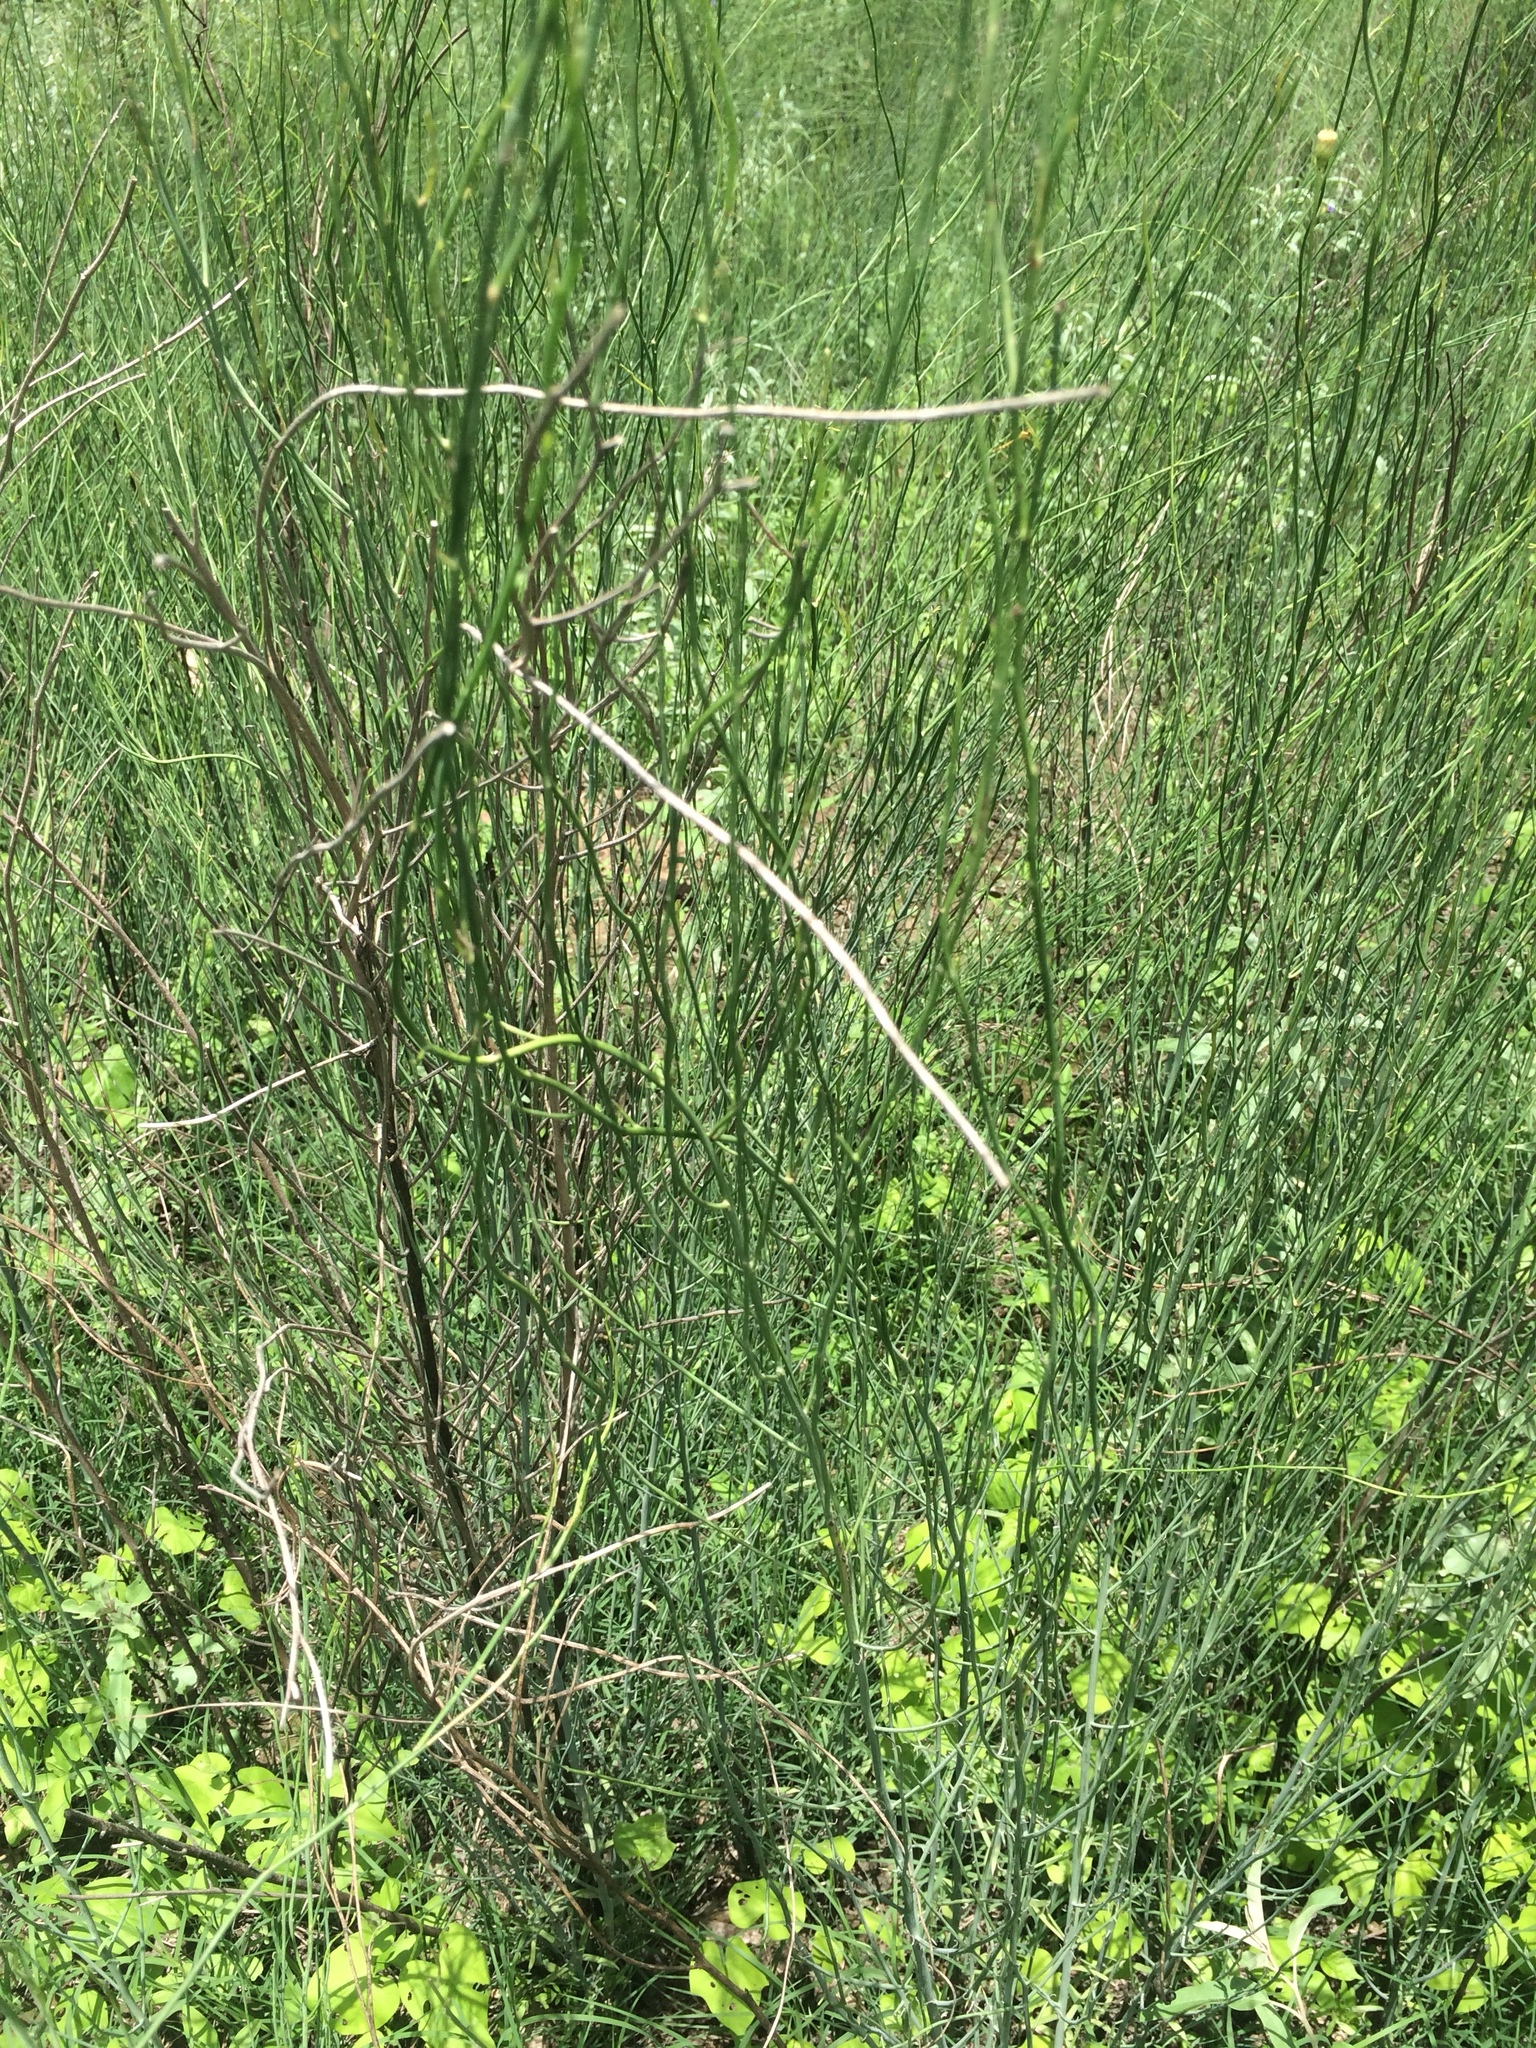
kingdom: Plantae
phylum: Tracheophyta
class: Magnoliopsida
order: Fabales
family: Fabaceae
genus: Spartium
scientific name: Spartium junceum
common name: Spanish broom
